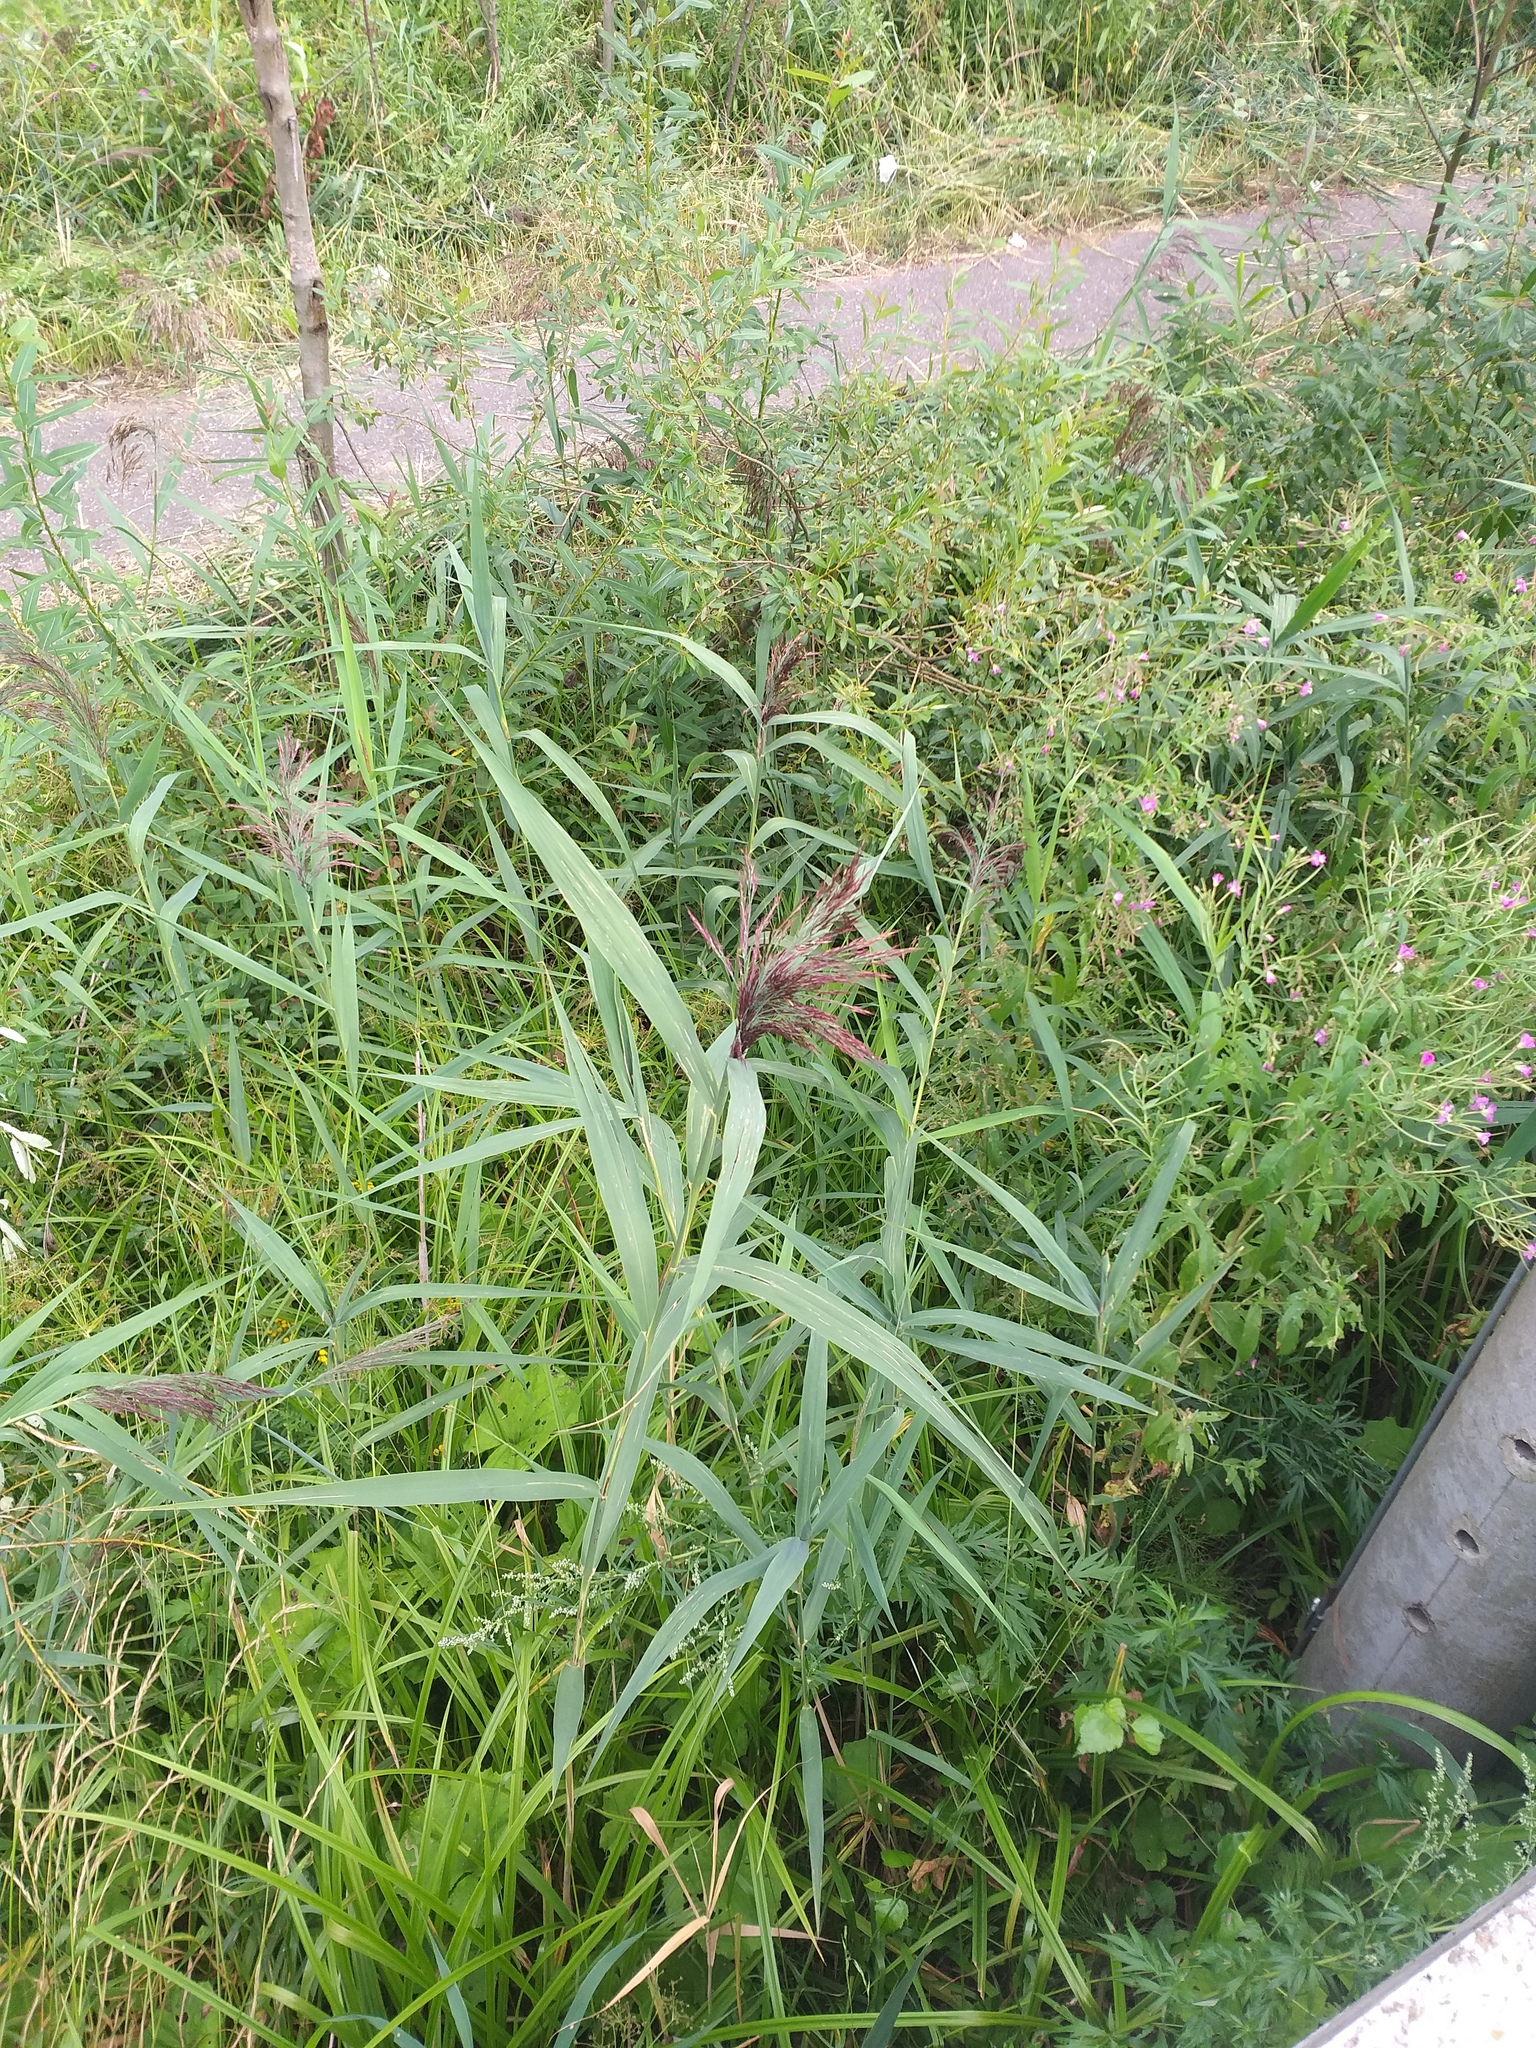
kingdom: Plantae
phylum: Tracheophyta
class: Liliopsida
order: Poales
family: Poaceae
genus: Phragmites
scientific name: Phragmites australis
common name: Common reed
